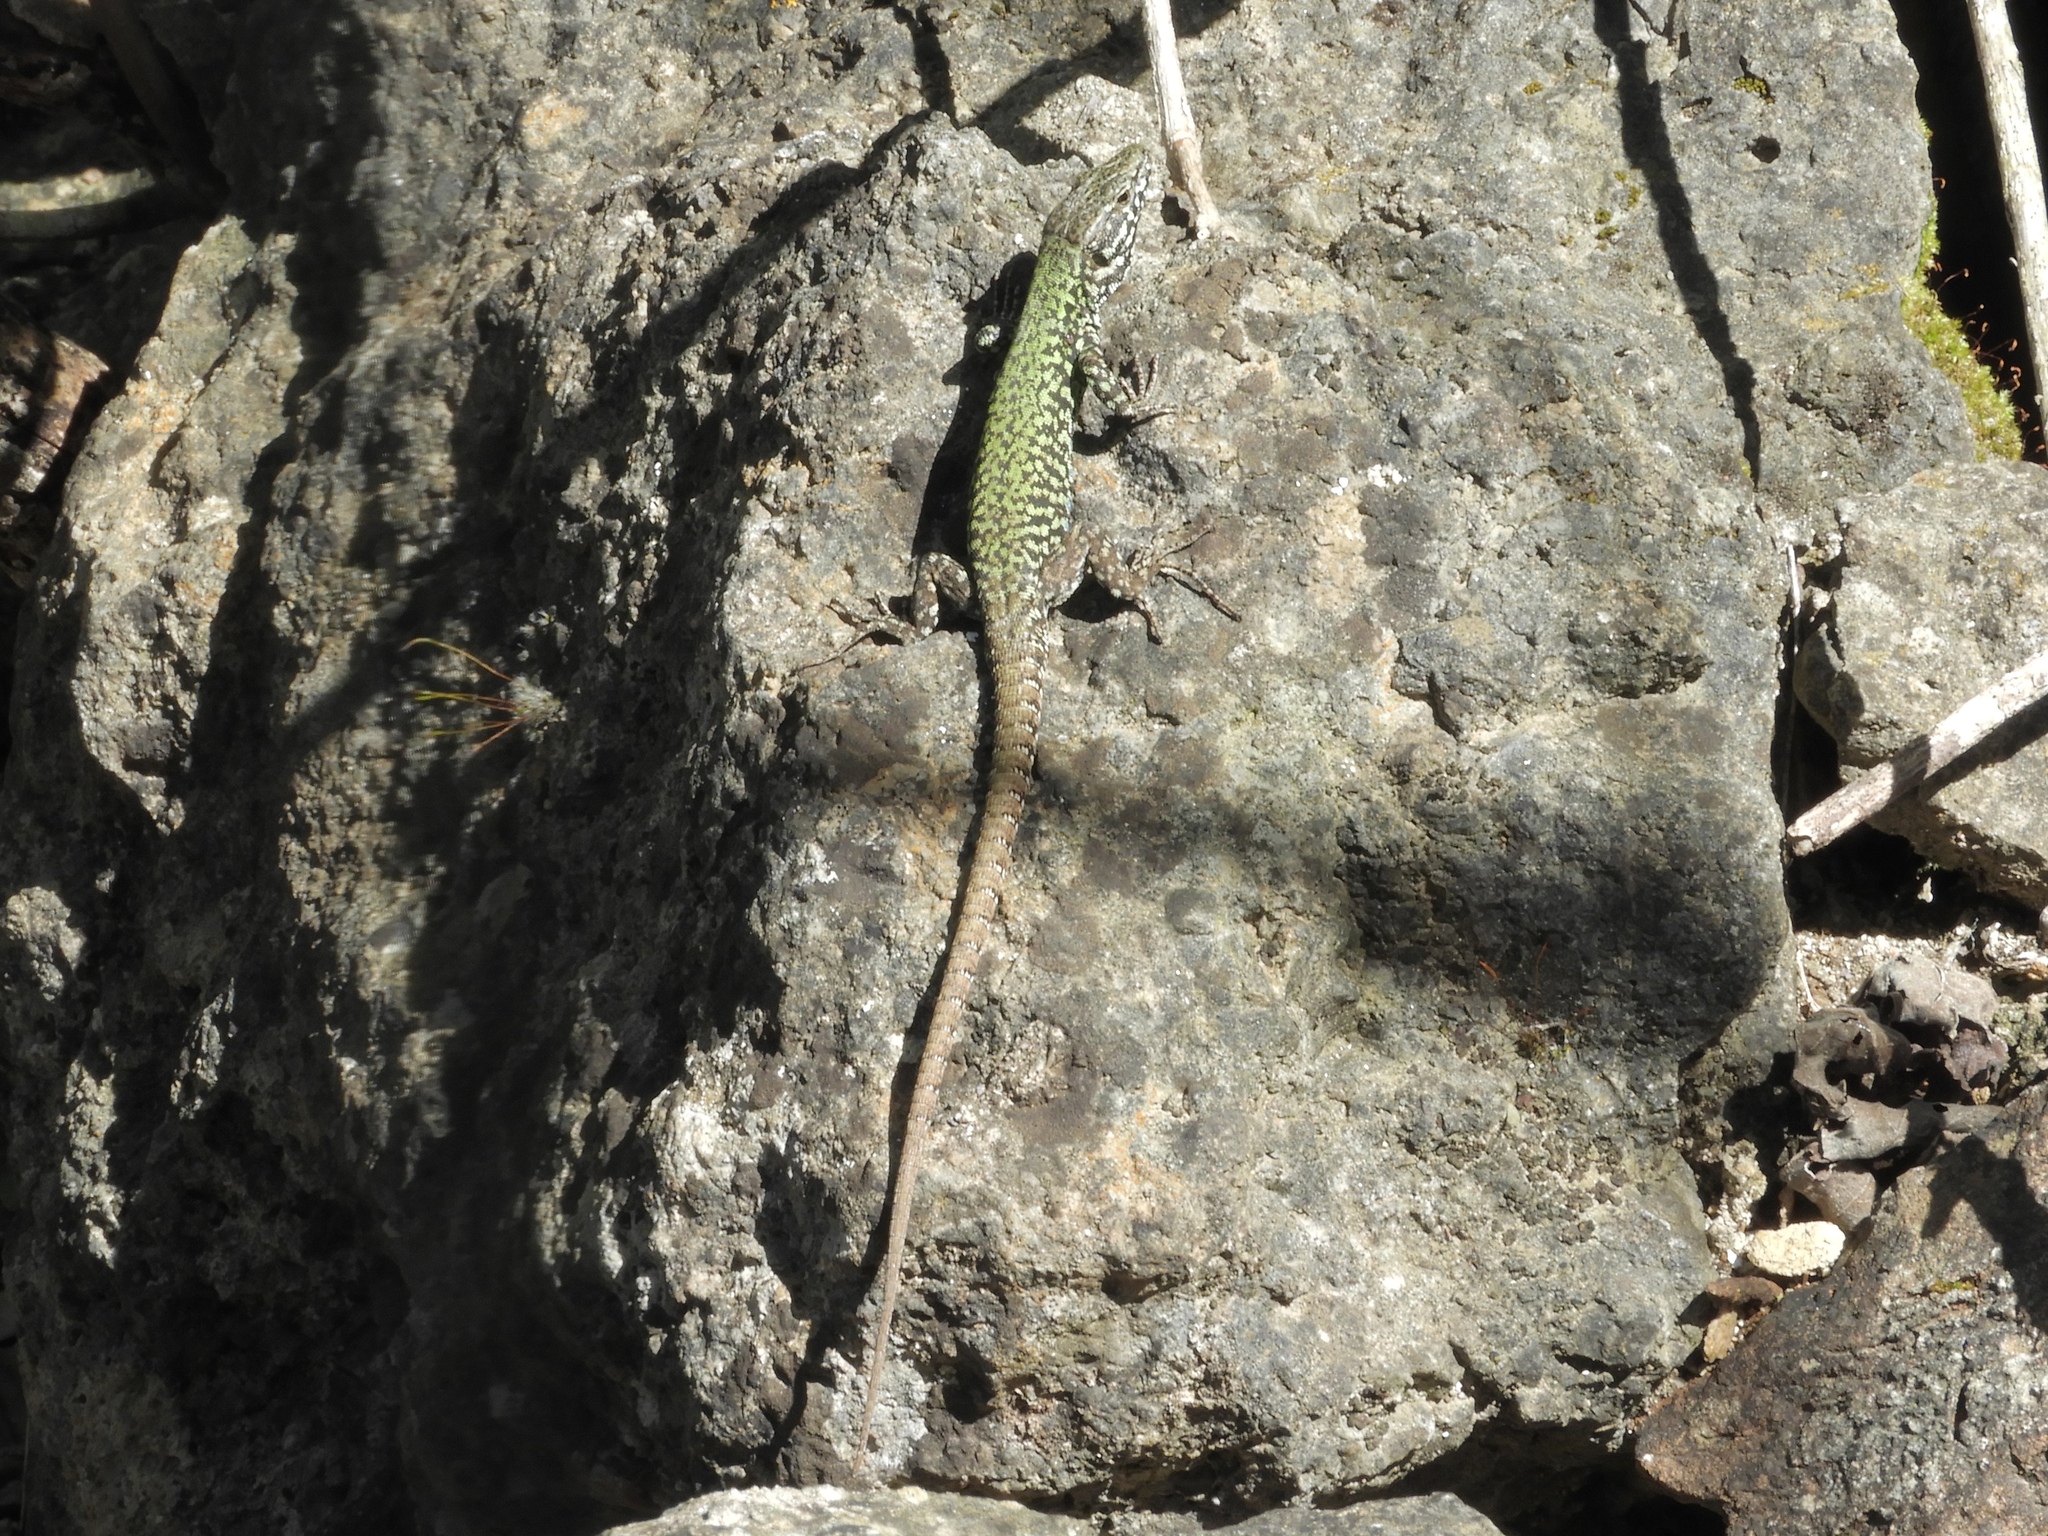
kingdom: Animalia
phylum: Chordata
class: Squamata
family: Lacertidae
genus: Podarcis
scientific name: Podarcis muralis
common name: Common wall lizard
